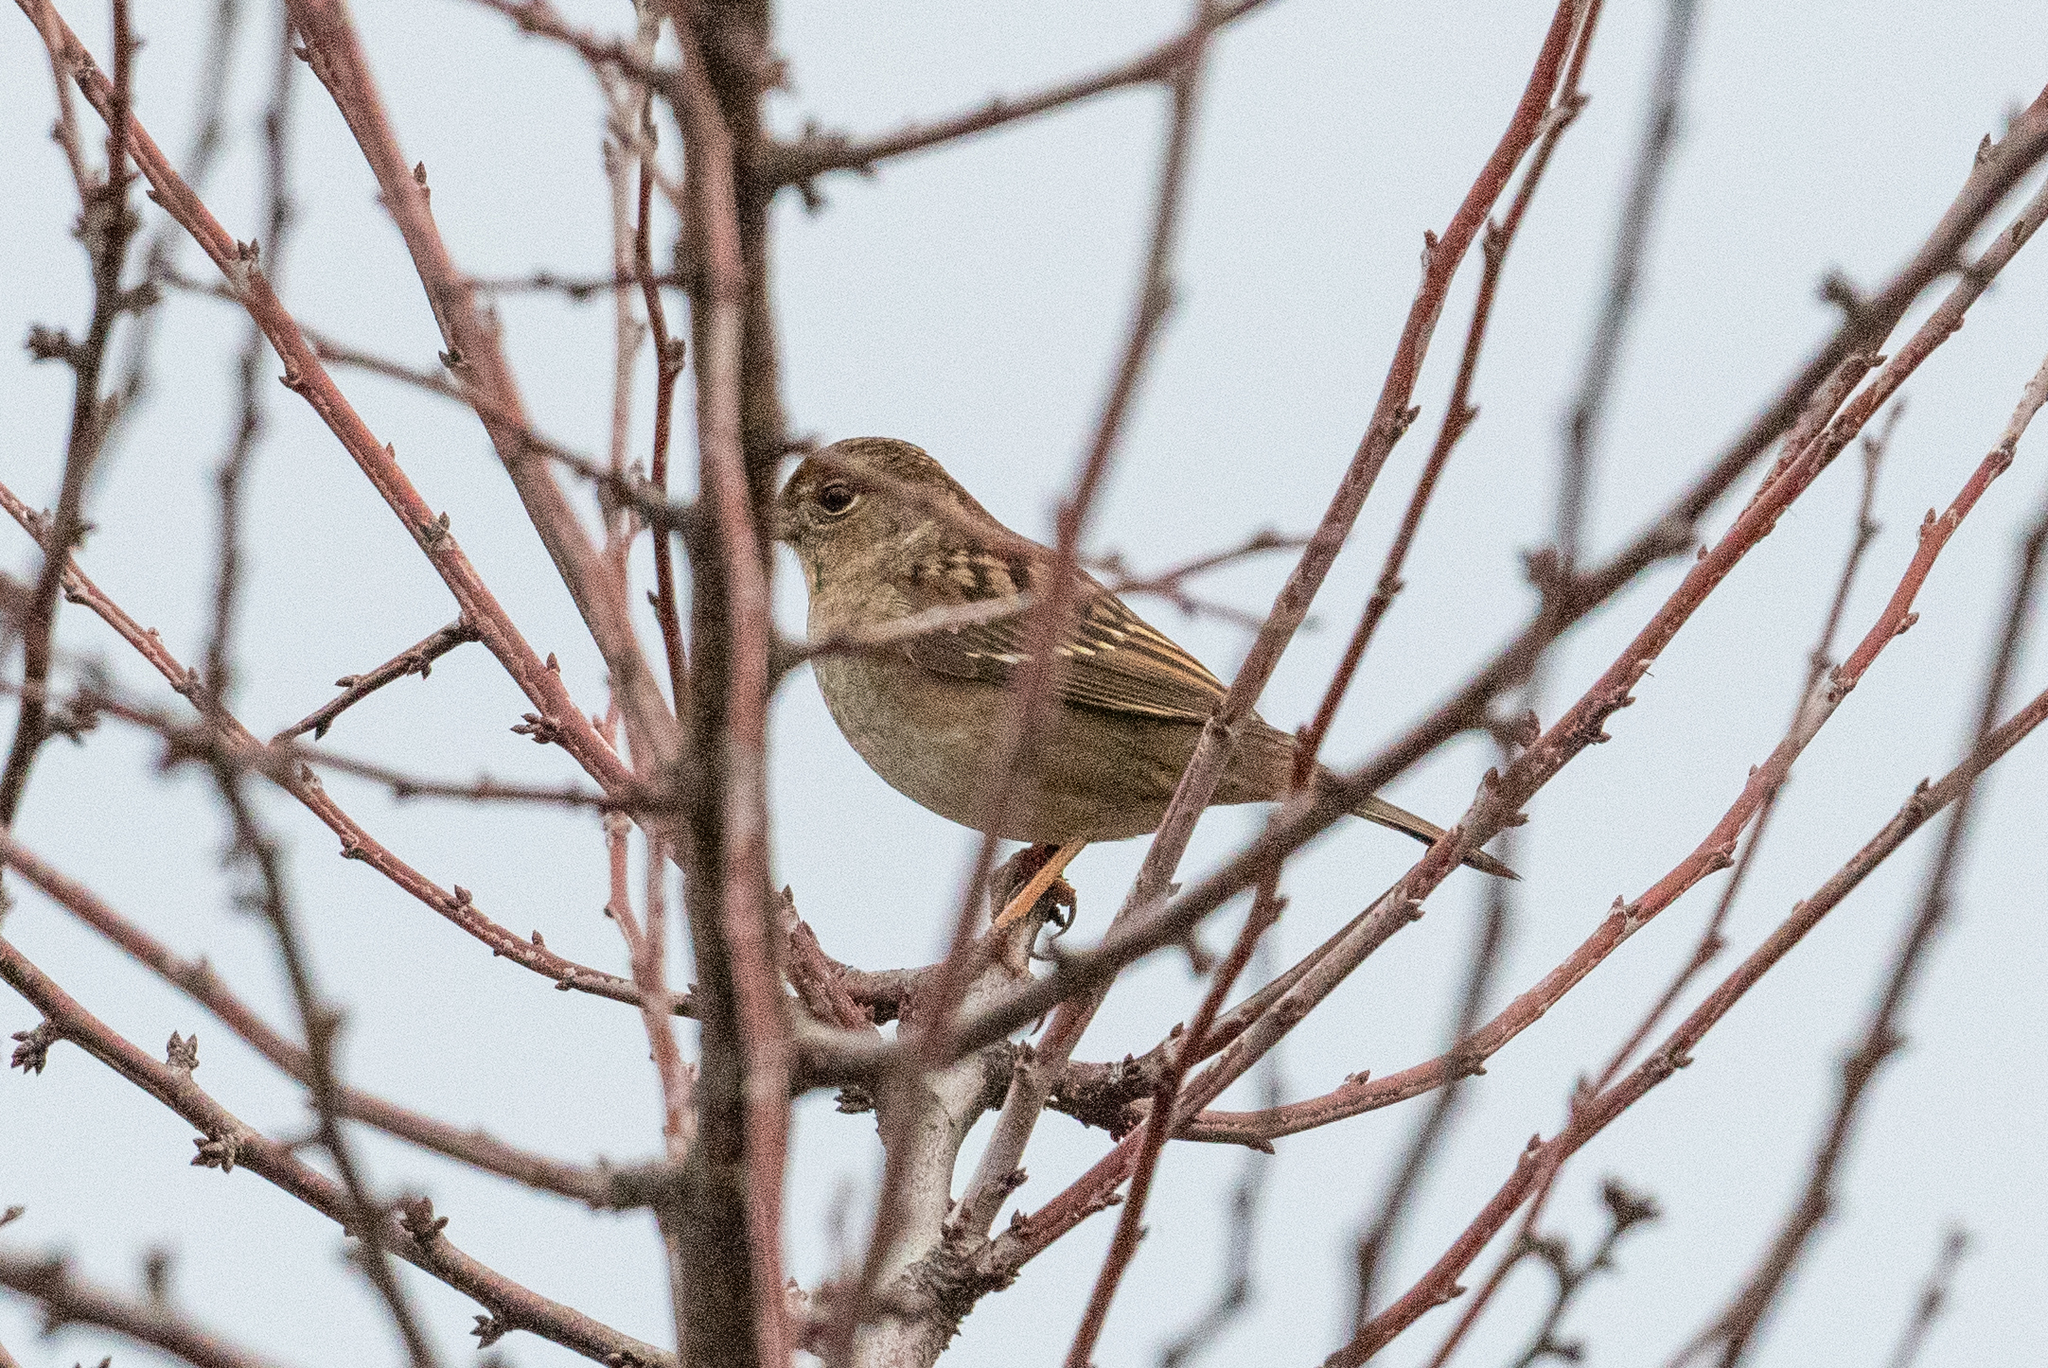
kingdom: Animalia
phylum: Chordata
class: Aves
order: Passeriformes
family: Passerellidae
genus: Zonotrichia
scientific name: Zonotrichia atricapilla
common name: Golden-crowned sparrow
